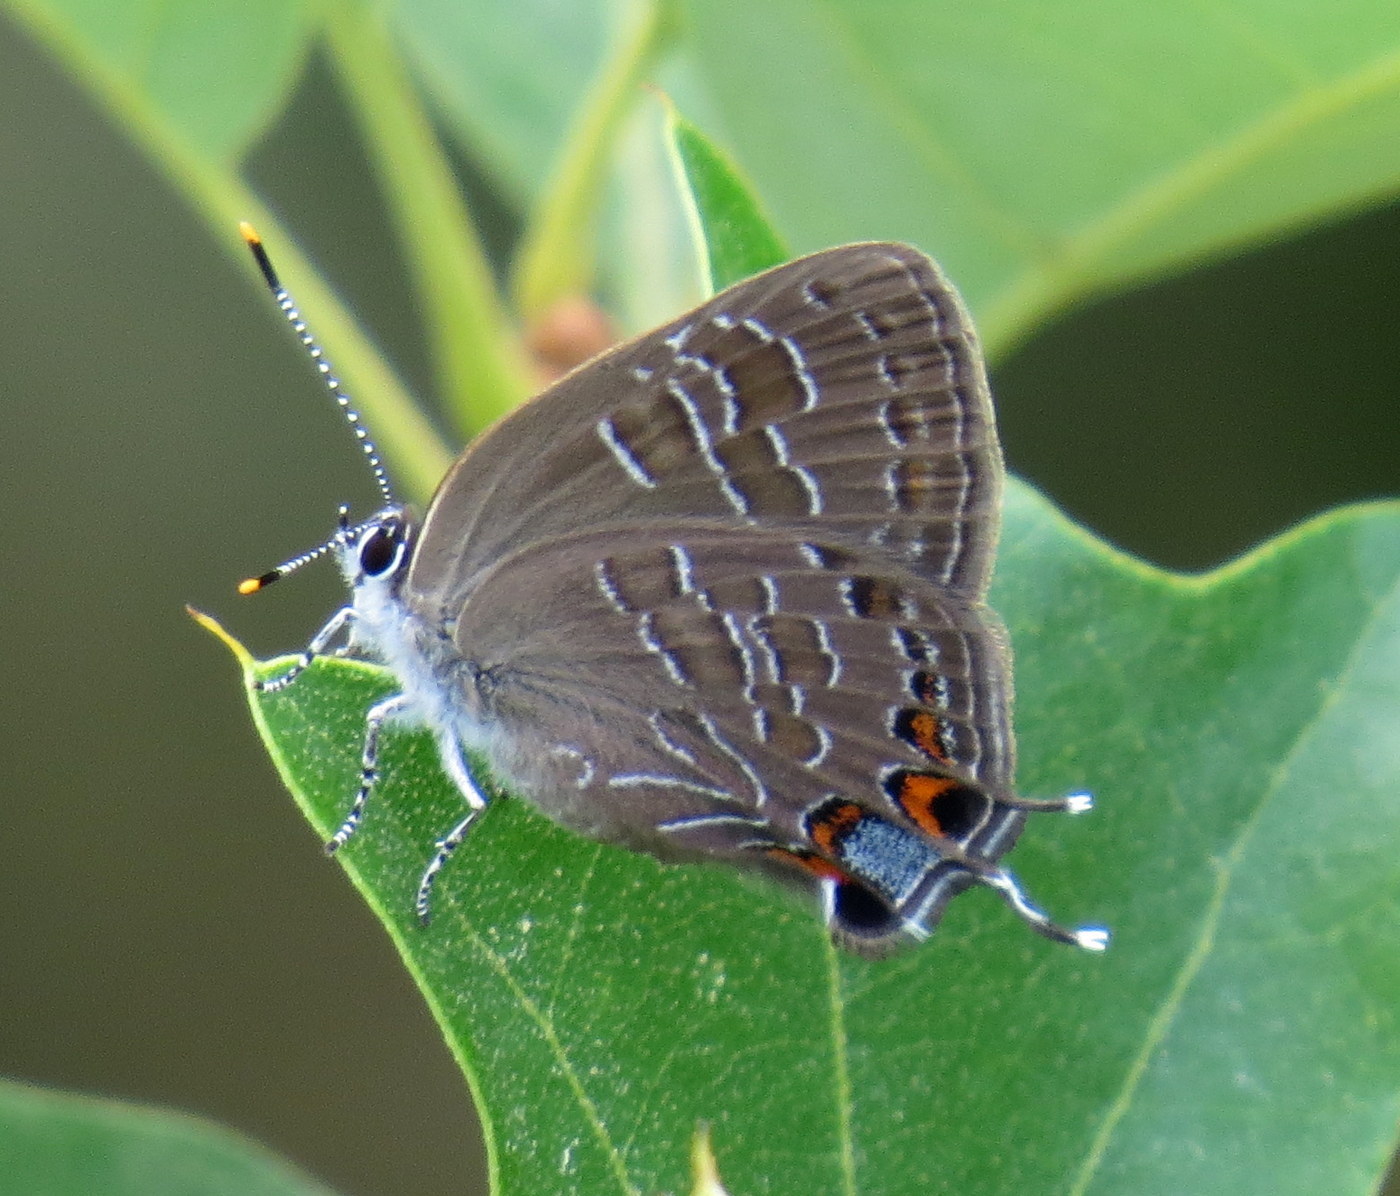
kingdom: Animalia
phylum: Arthropoda
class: Insecta
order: Lepidoptera
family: Lycaenidae
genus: Satyrium
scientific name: Satyrium liparops
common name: Striped hairstreak
